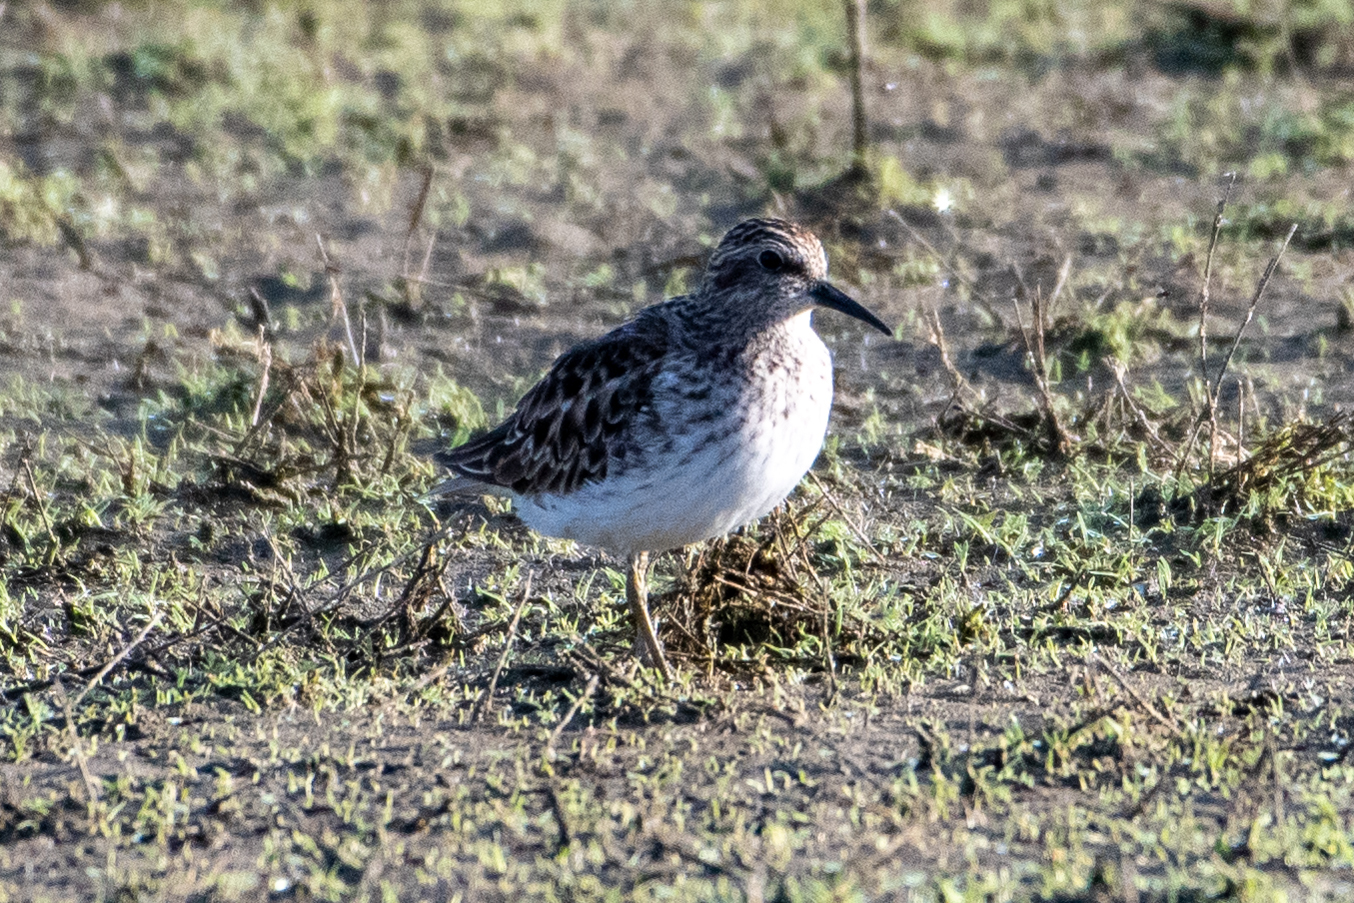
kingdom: Animalia
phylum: Chordata
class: Aves
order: Charadriiformes
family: Scolopacidae
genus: Calidris
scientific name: Calidris minutilla
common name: Least sandpiper
